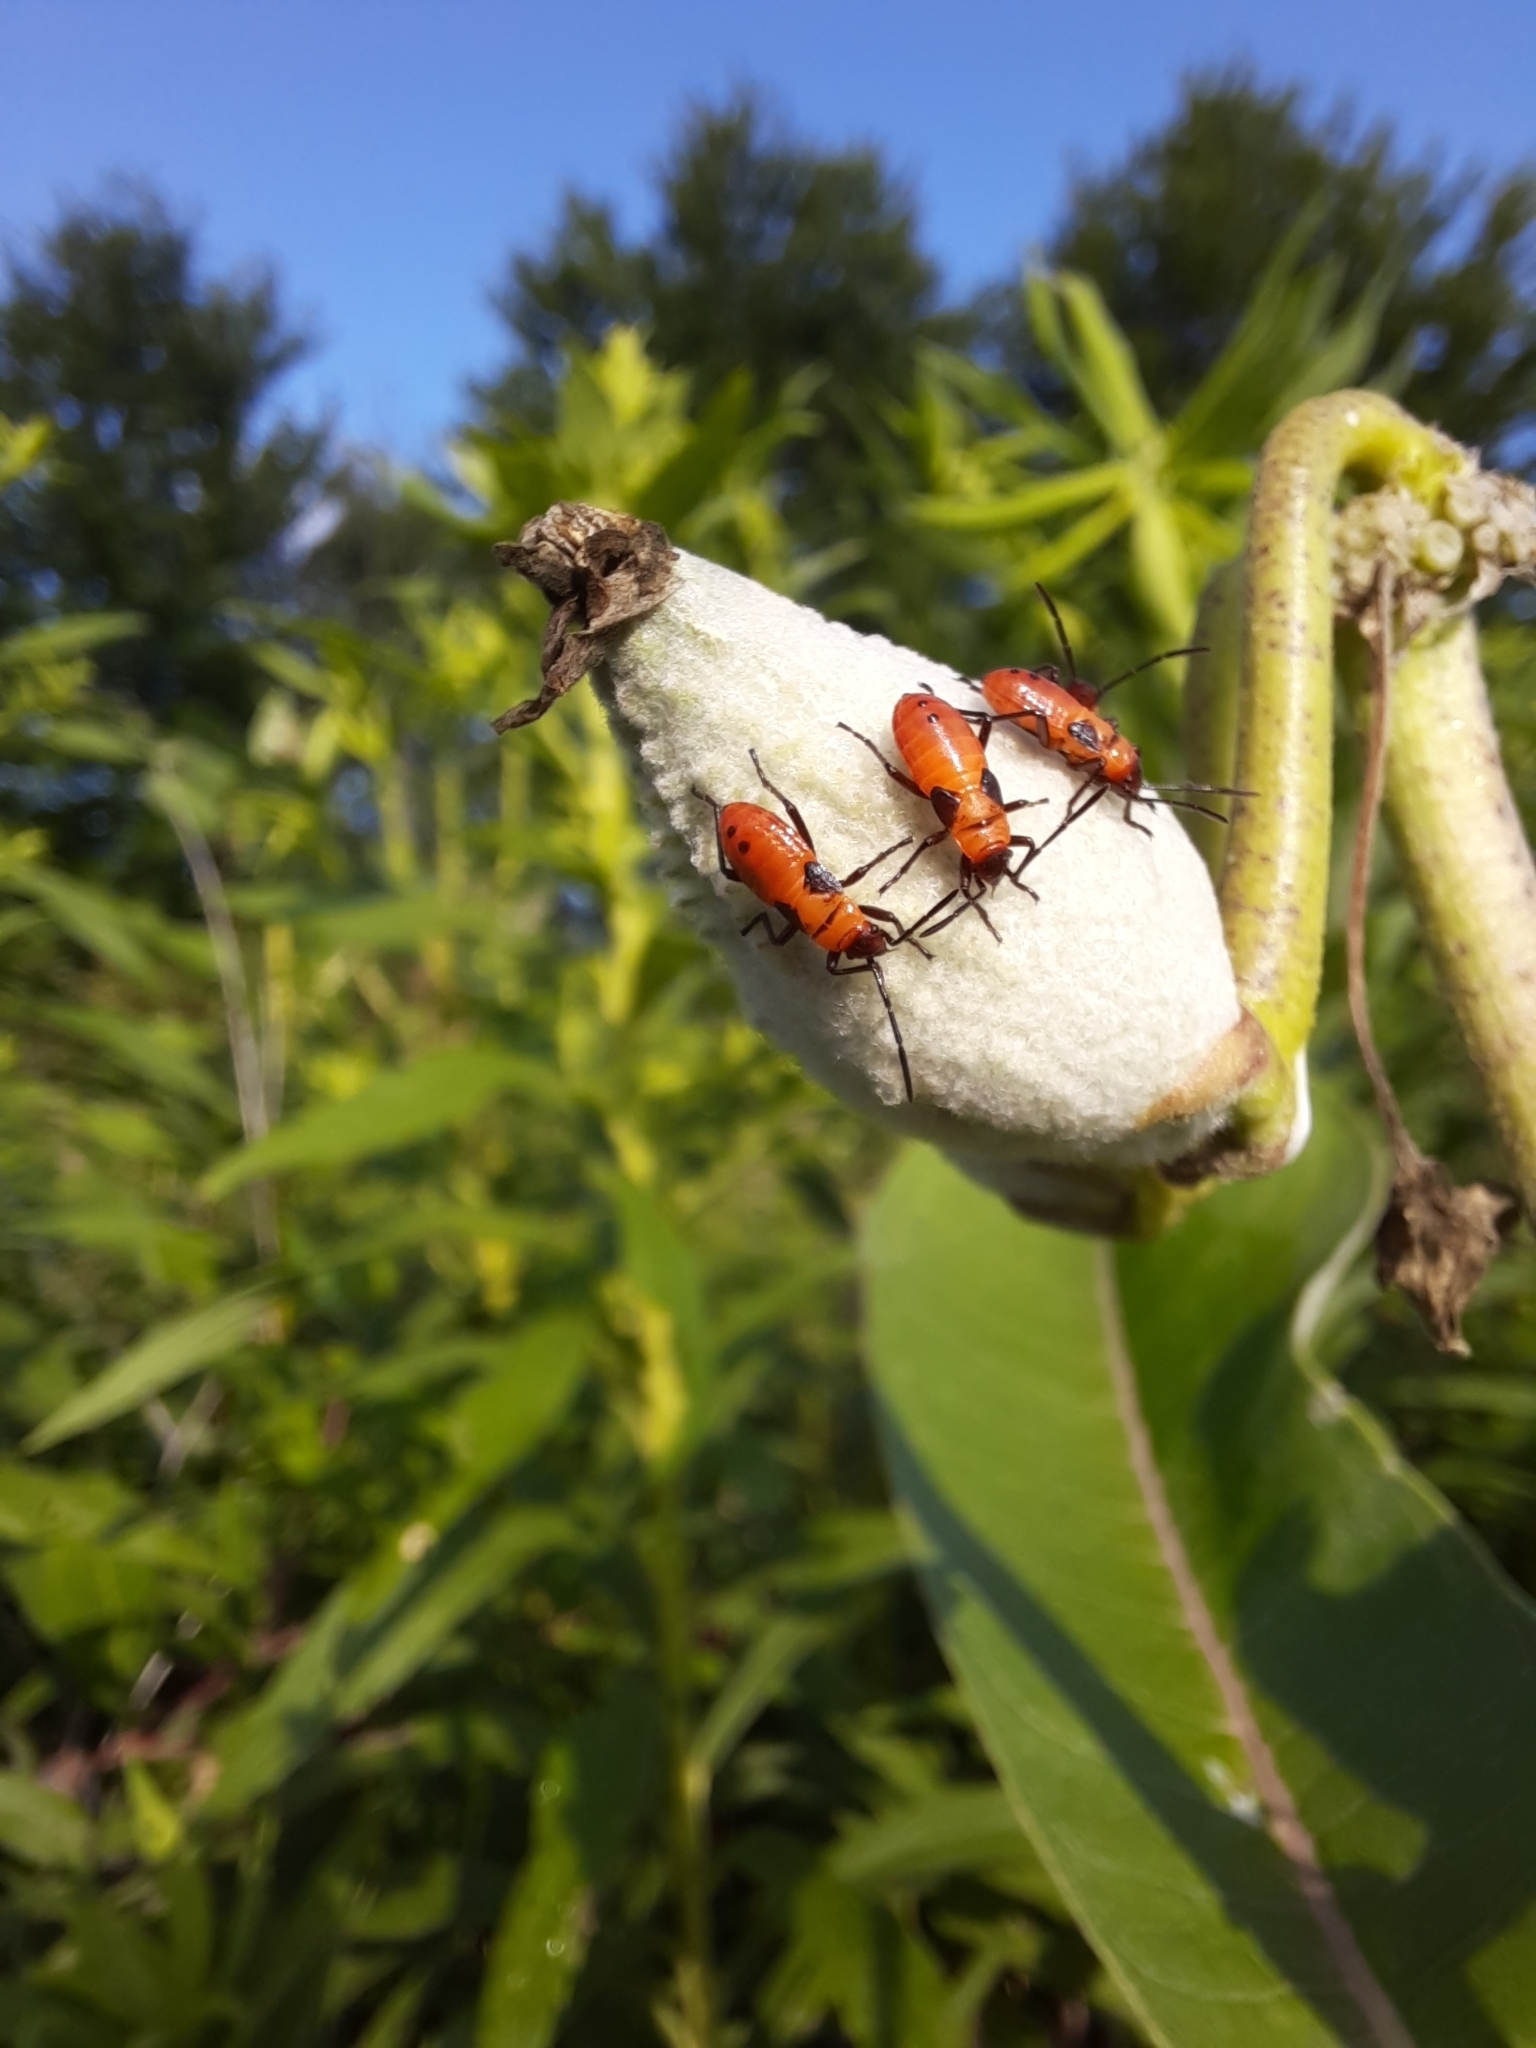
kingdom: Animalia
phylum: Arthropoda
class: Insecta
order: Hemiptera
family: Lygaeidae
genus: Oncopeltus
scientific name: Oncopeltus fasciatus
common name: Large milkweed bug
